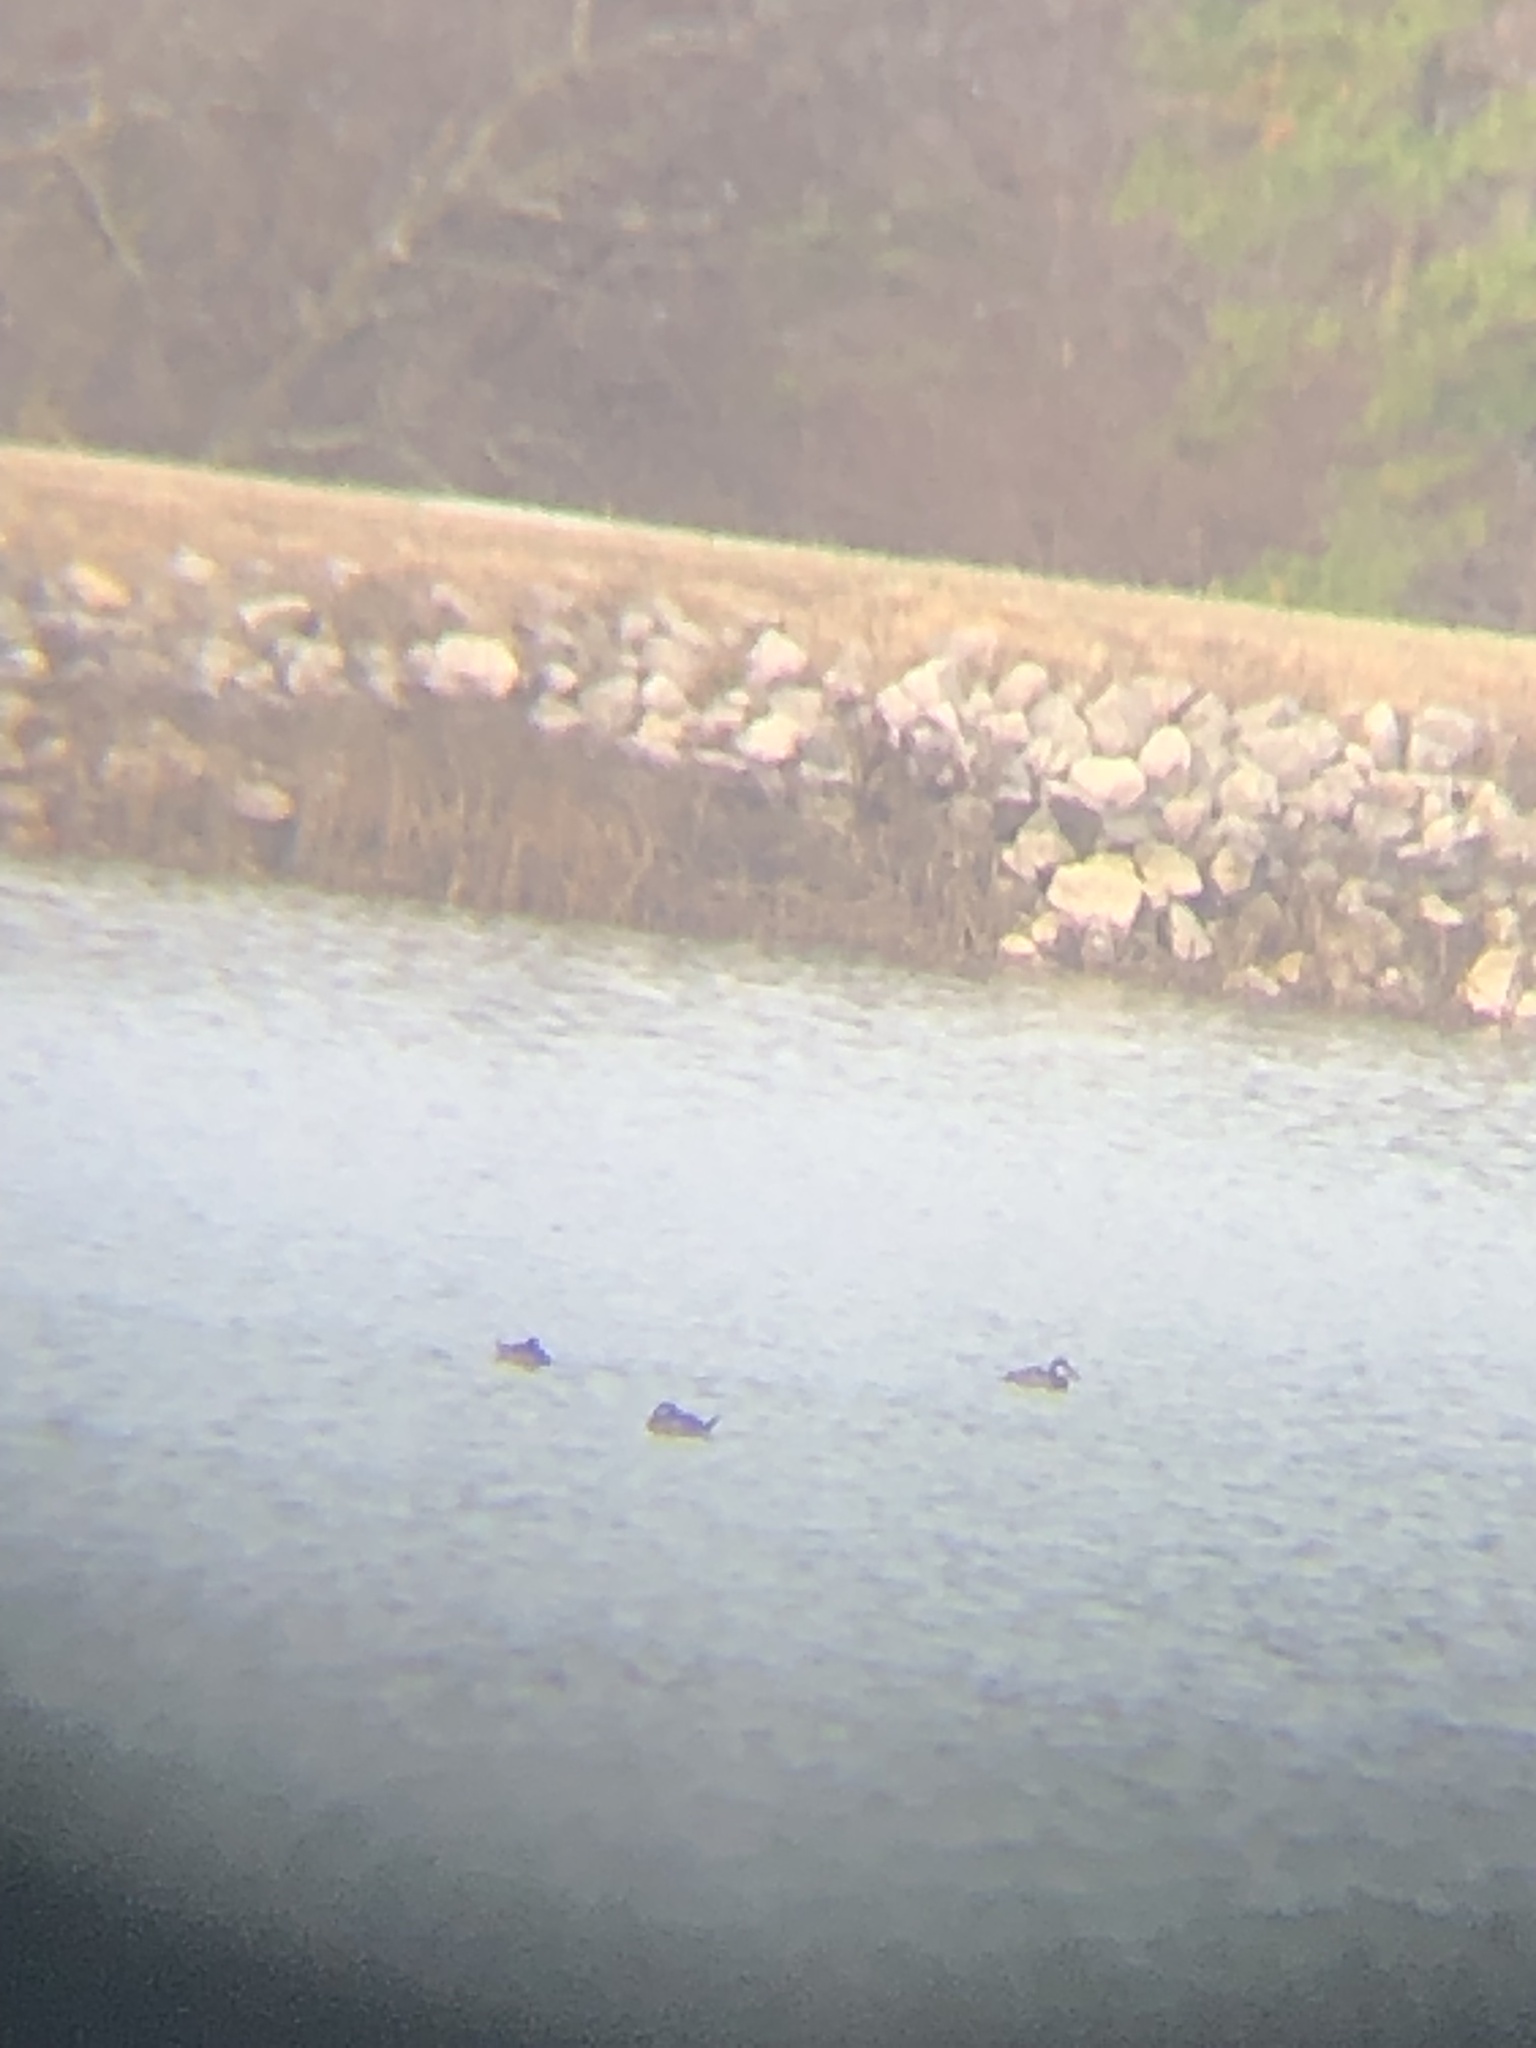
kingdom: Animalia
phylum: Chordata
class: Aves
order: Anseriformes
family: Anatidae
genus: Oxyura
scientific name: Oxyura jamaicensis
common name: Ruddy duck
